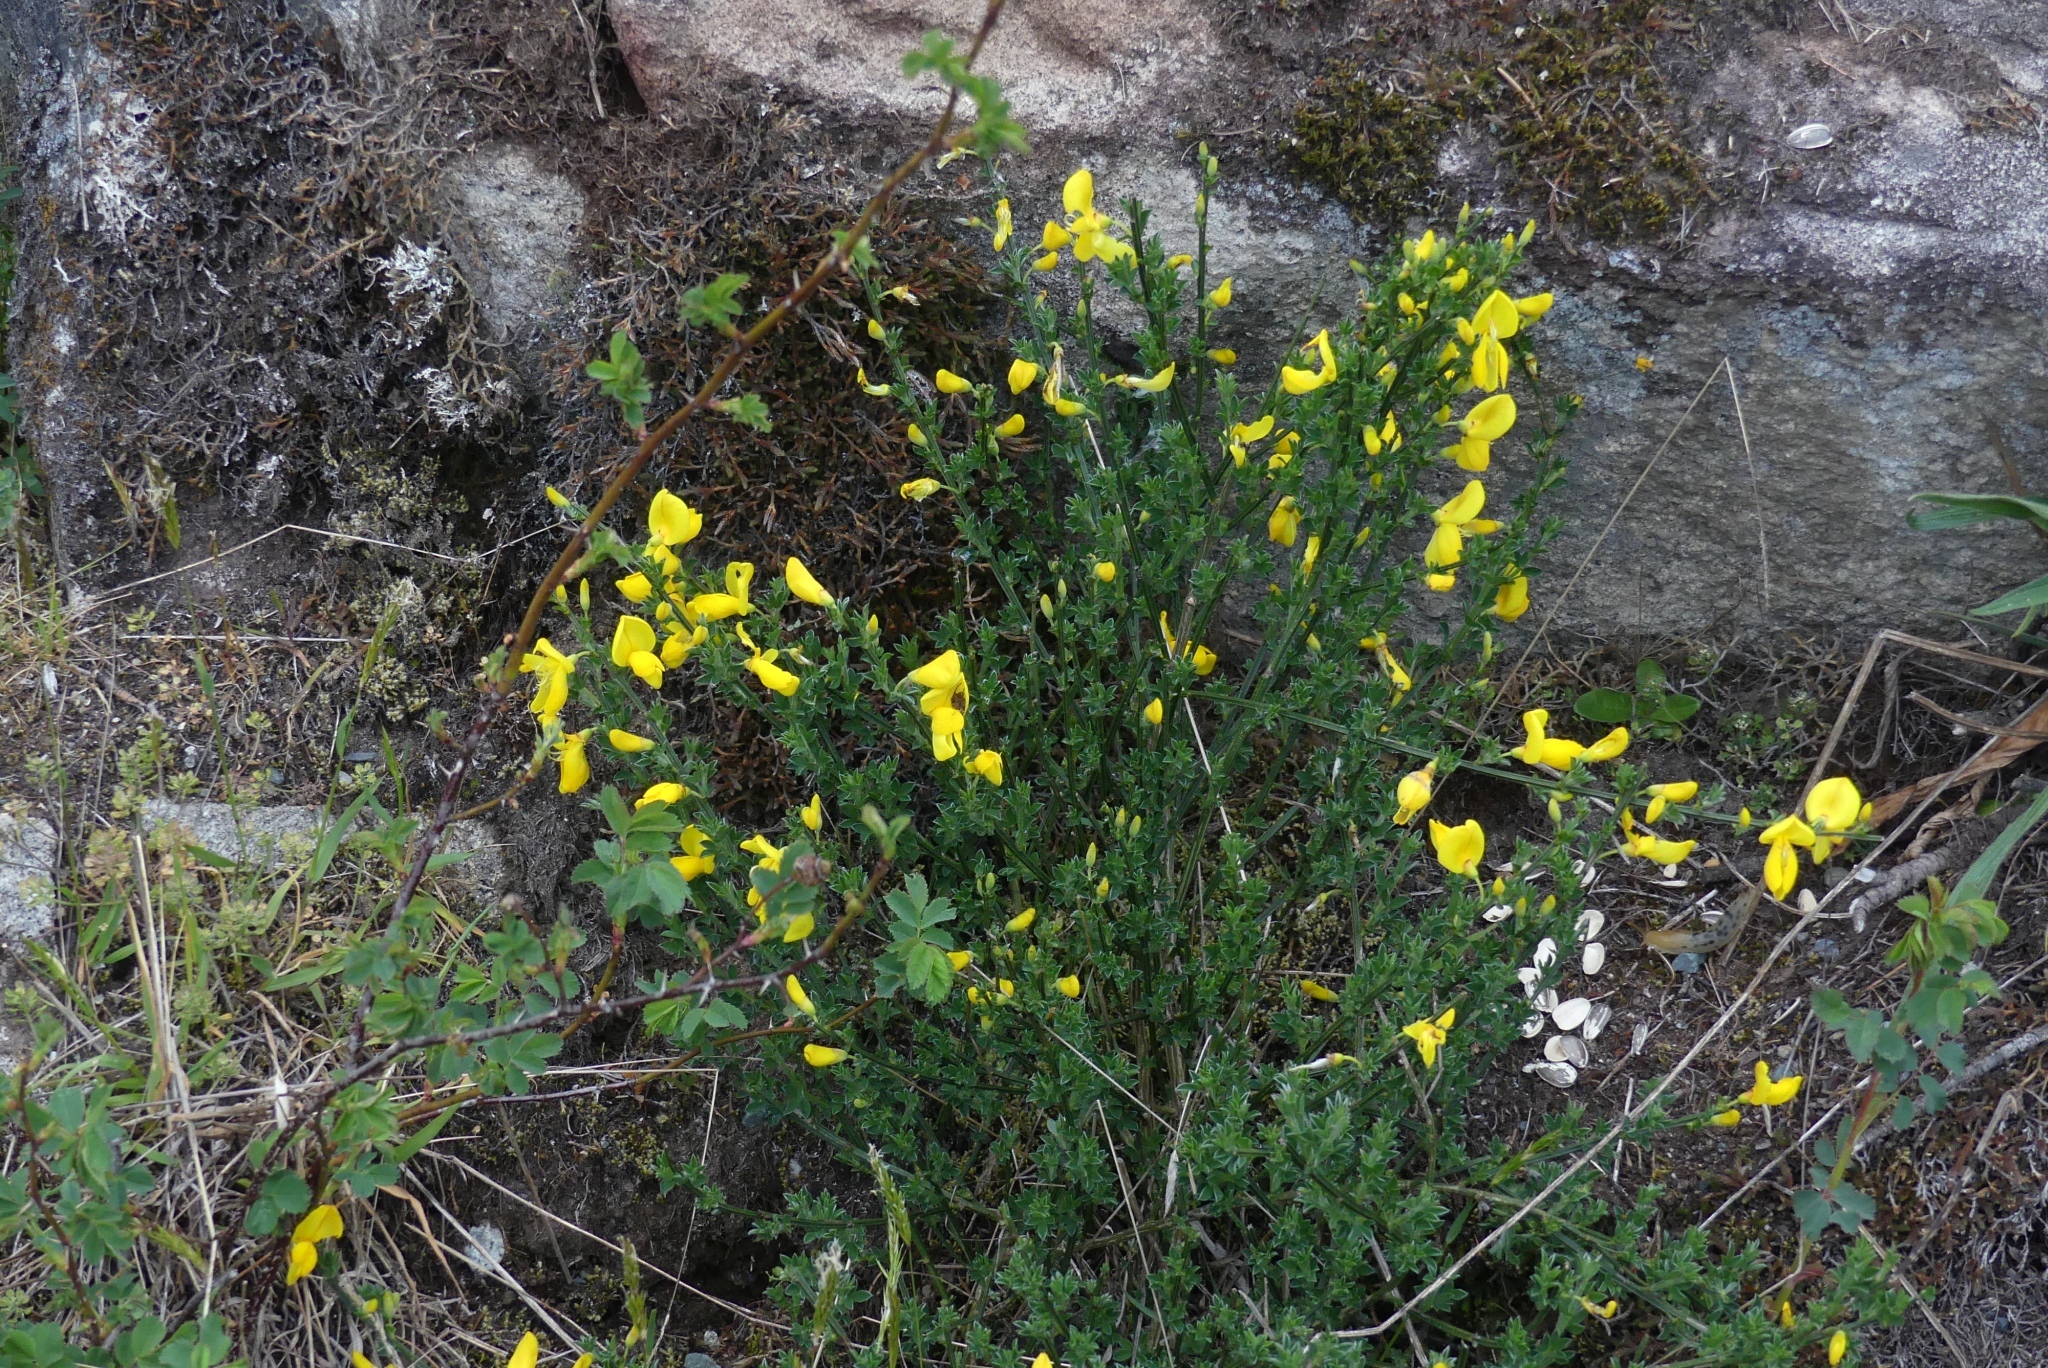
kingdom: Plantae
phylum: Tracheophyta
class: Magnoliopsida
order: Fabales
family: Fabaceae
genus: Cytisus
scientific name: Cytisus scoparius
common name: Scotch broom
